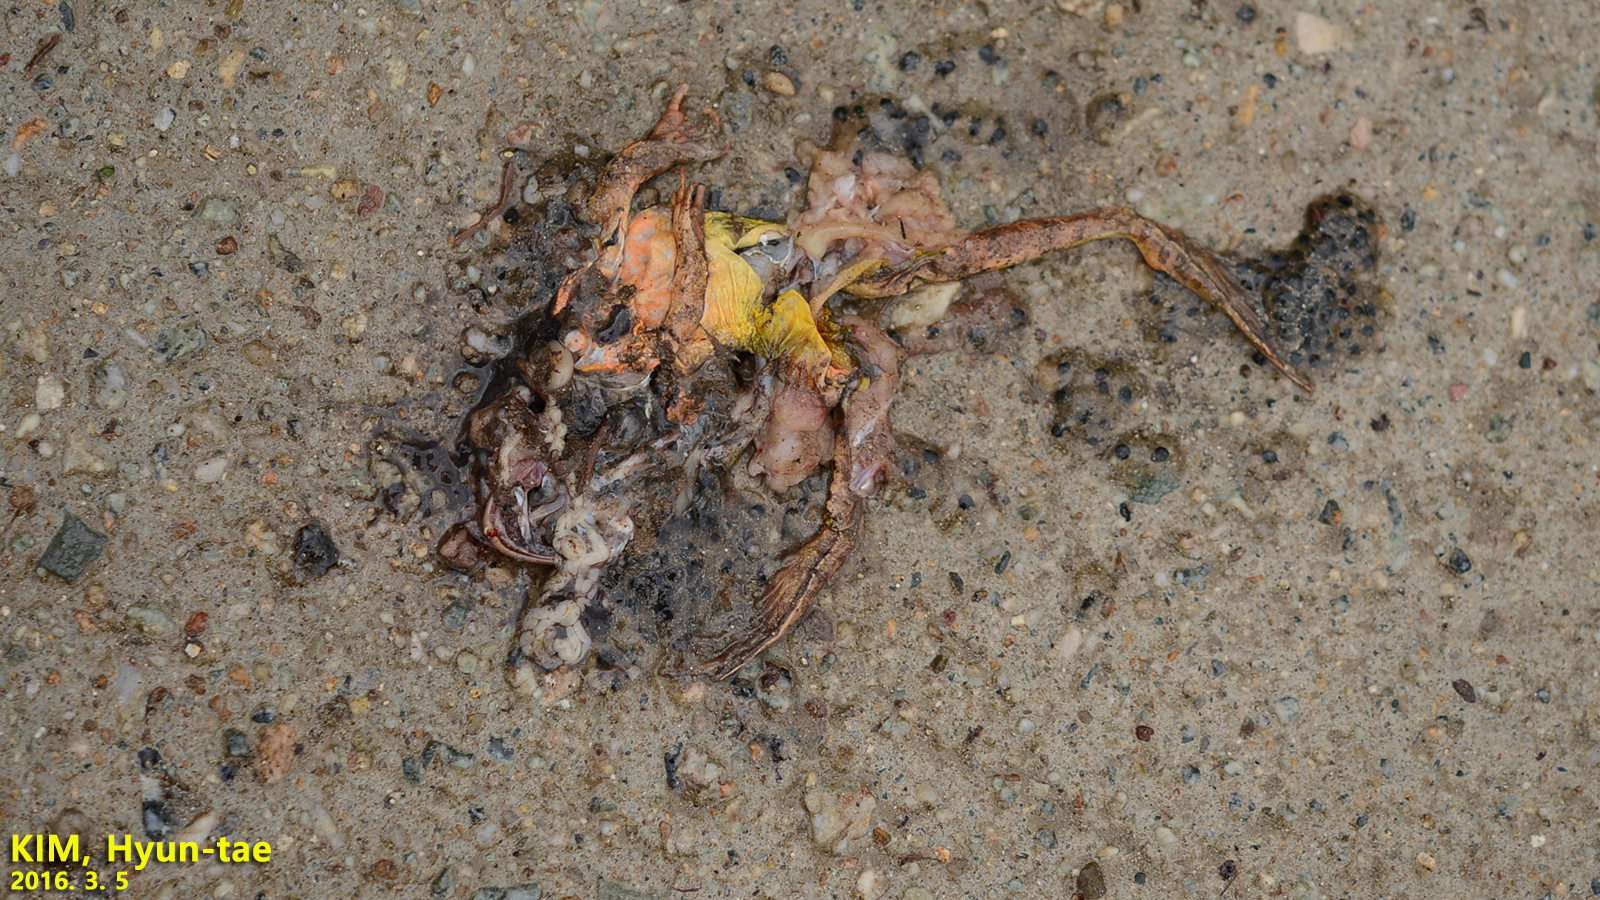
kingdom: Animalia
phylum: Chordata
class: Amphibia
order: Anura
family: Bufonidae
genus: Bufo
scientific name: Bufo gargarizans
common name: Asiatic toad
